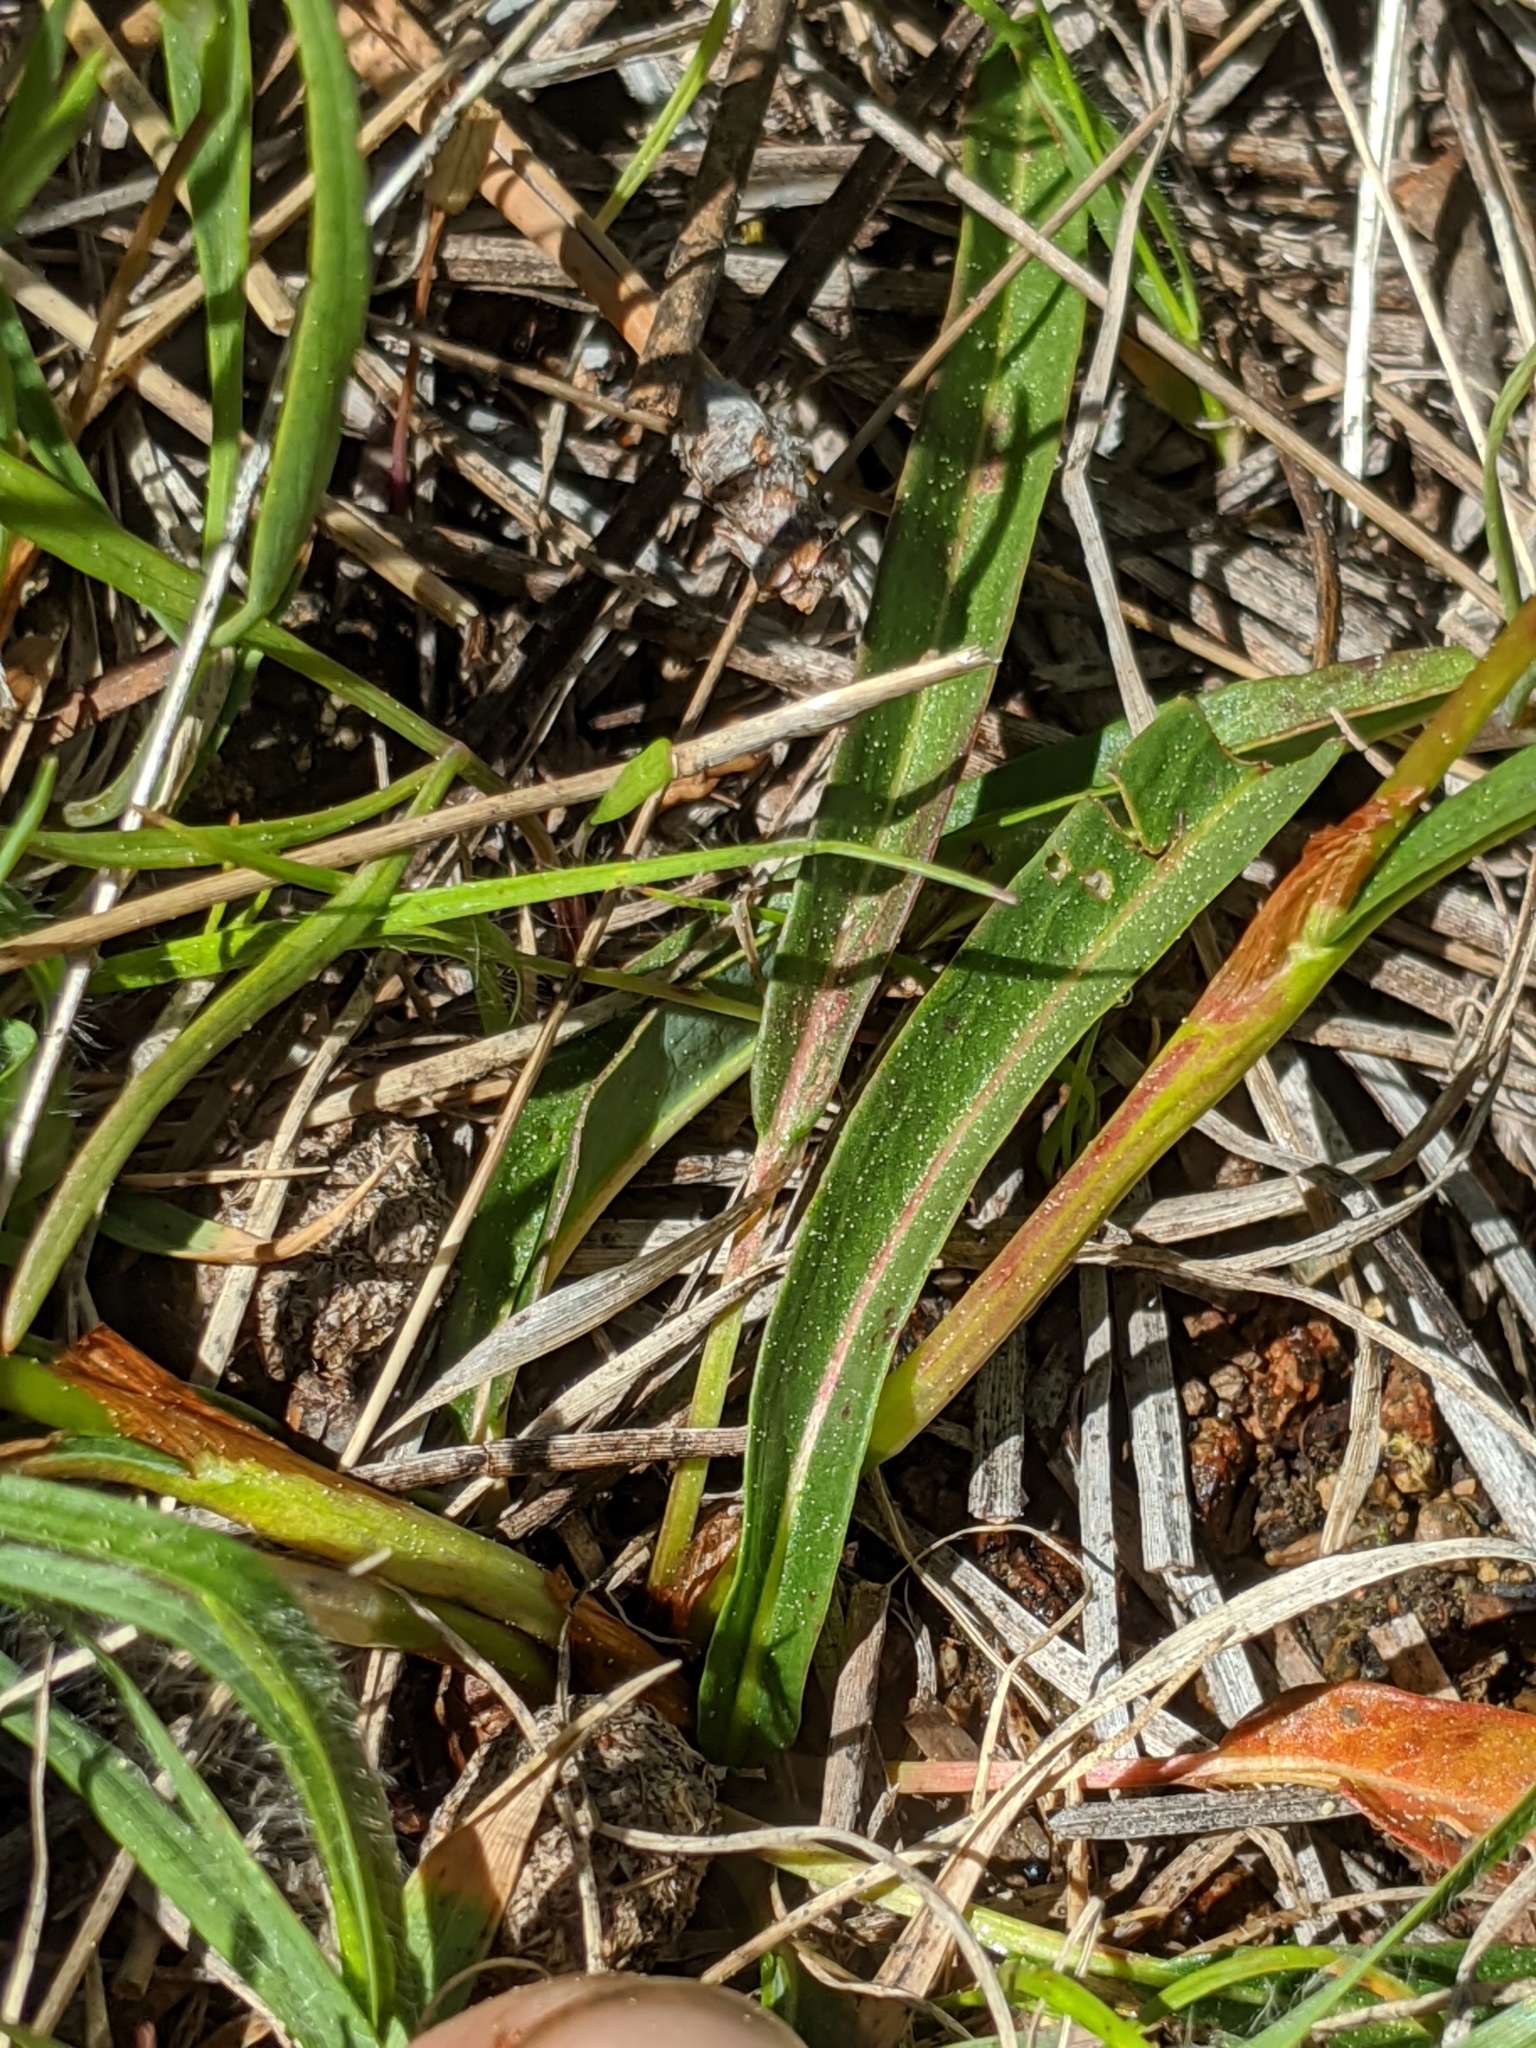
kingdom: Plantae
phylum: Tracheophyta
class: Magnoliopsida
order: Caryophyllales
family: Polygonaceae
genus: Bistorta
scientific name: Bistorta bistortoides
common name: American bistort
